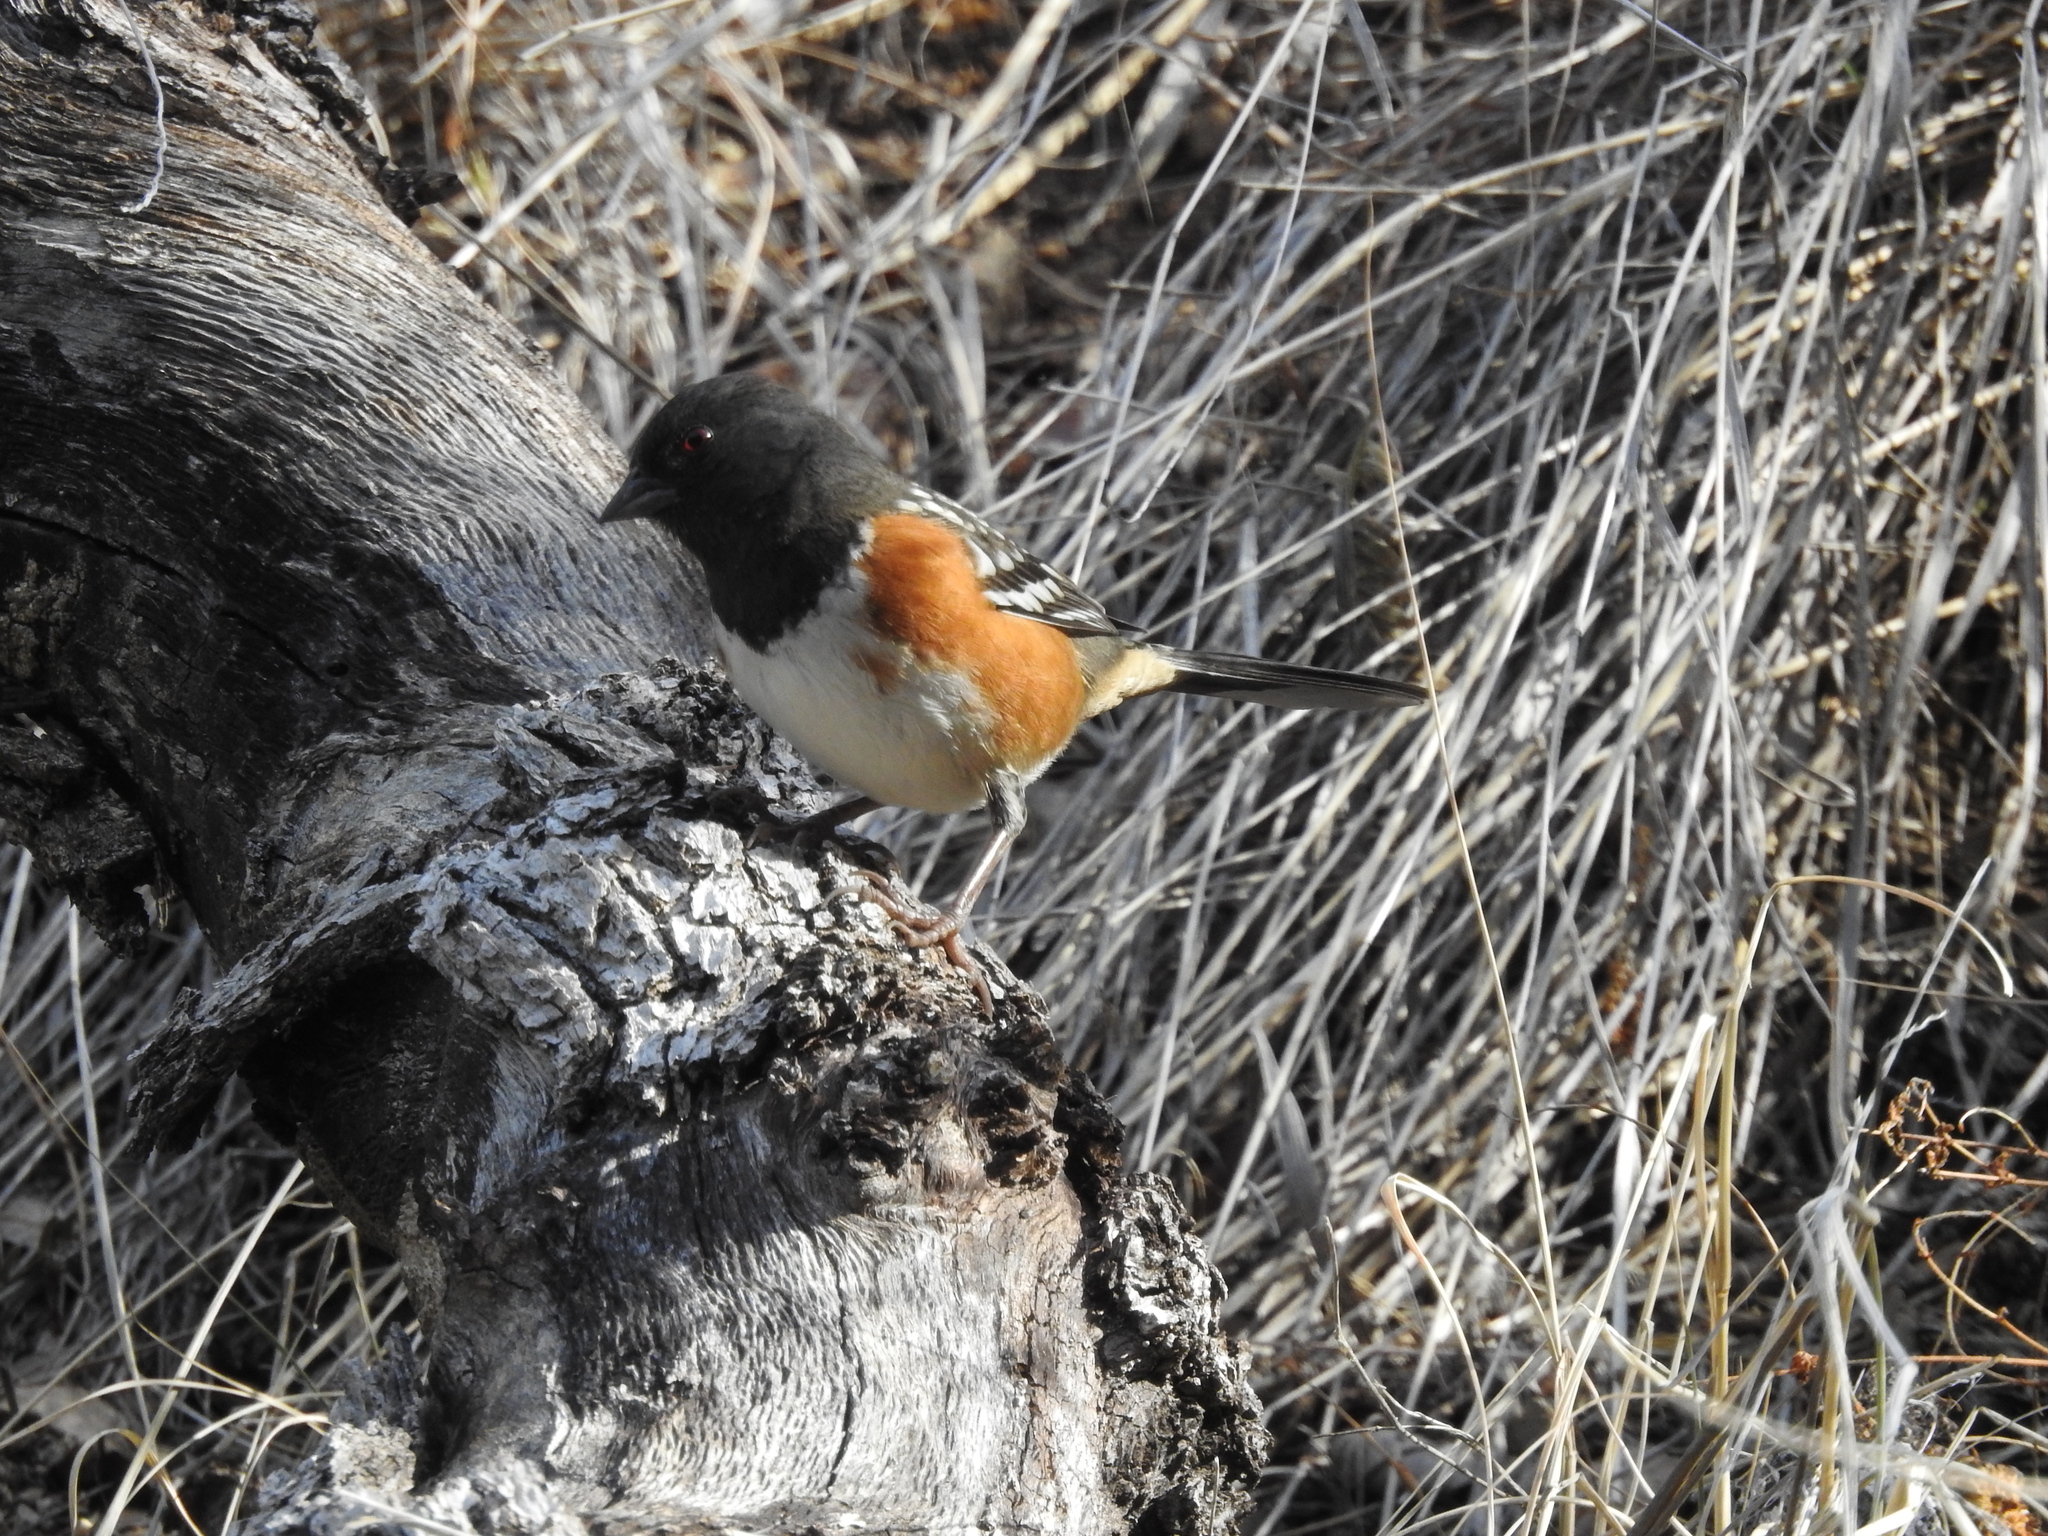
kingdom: Animalia
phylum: Chordata
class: Aves
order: Passeriformes
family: Passerellidae
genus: Pipilo
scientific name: Pipilo maculatus
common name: Spotted towhee
